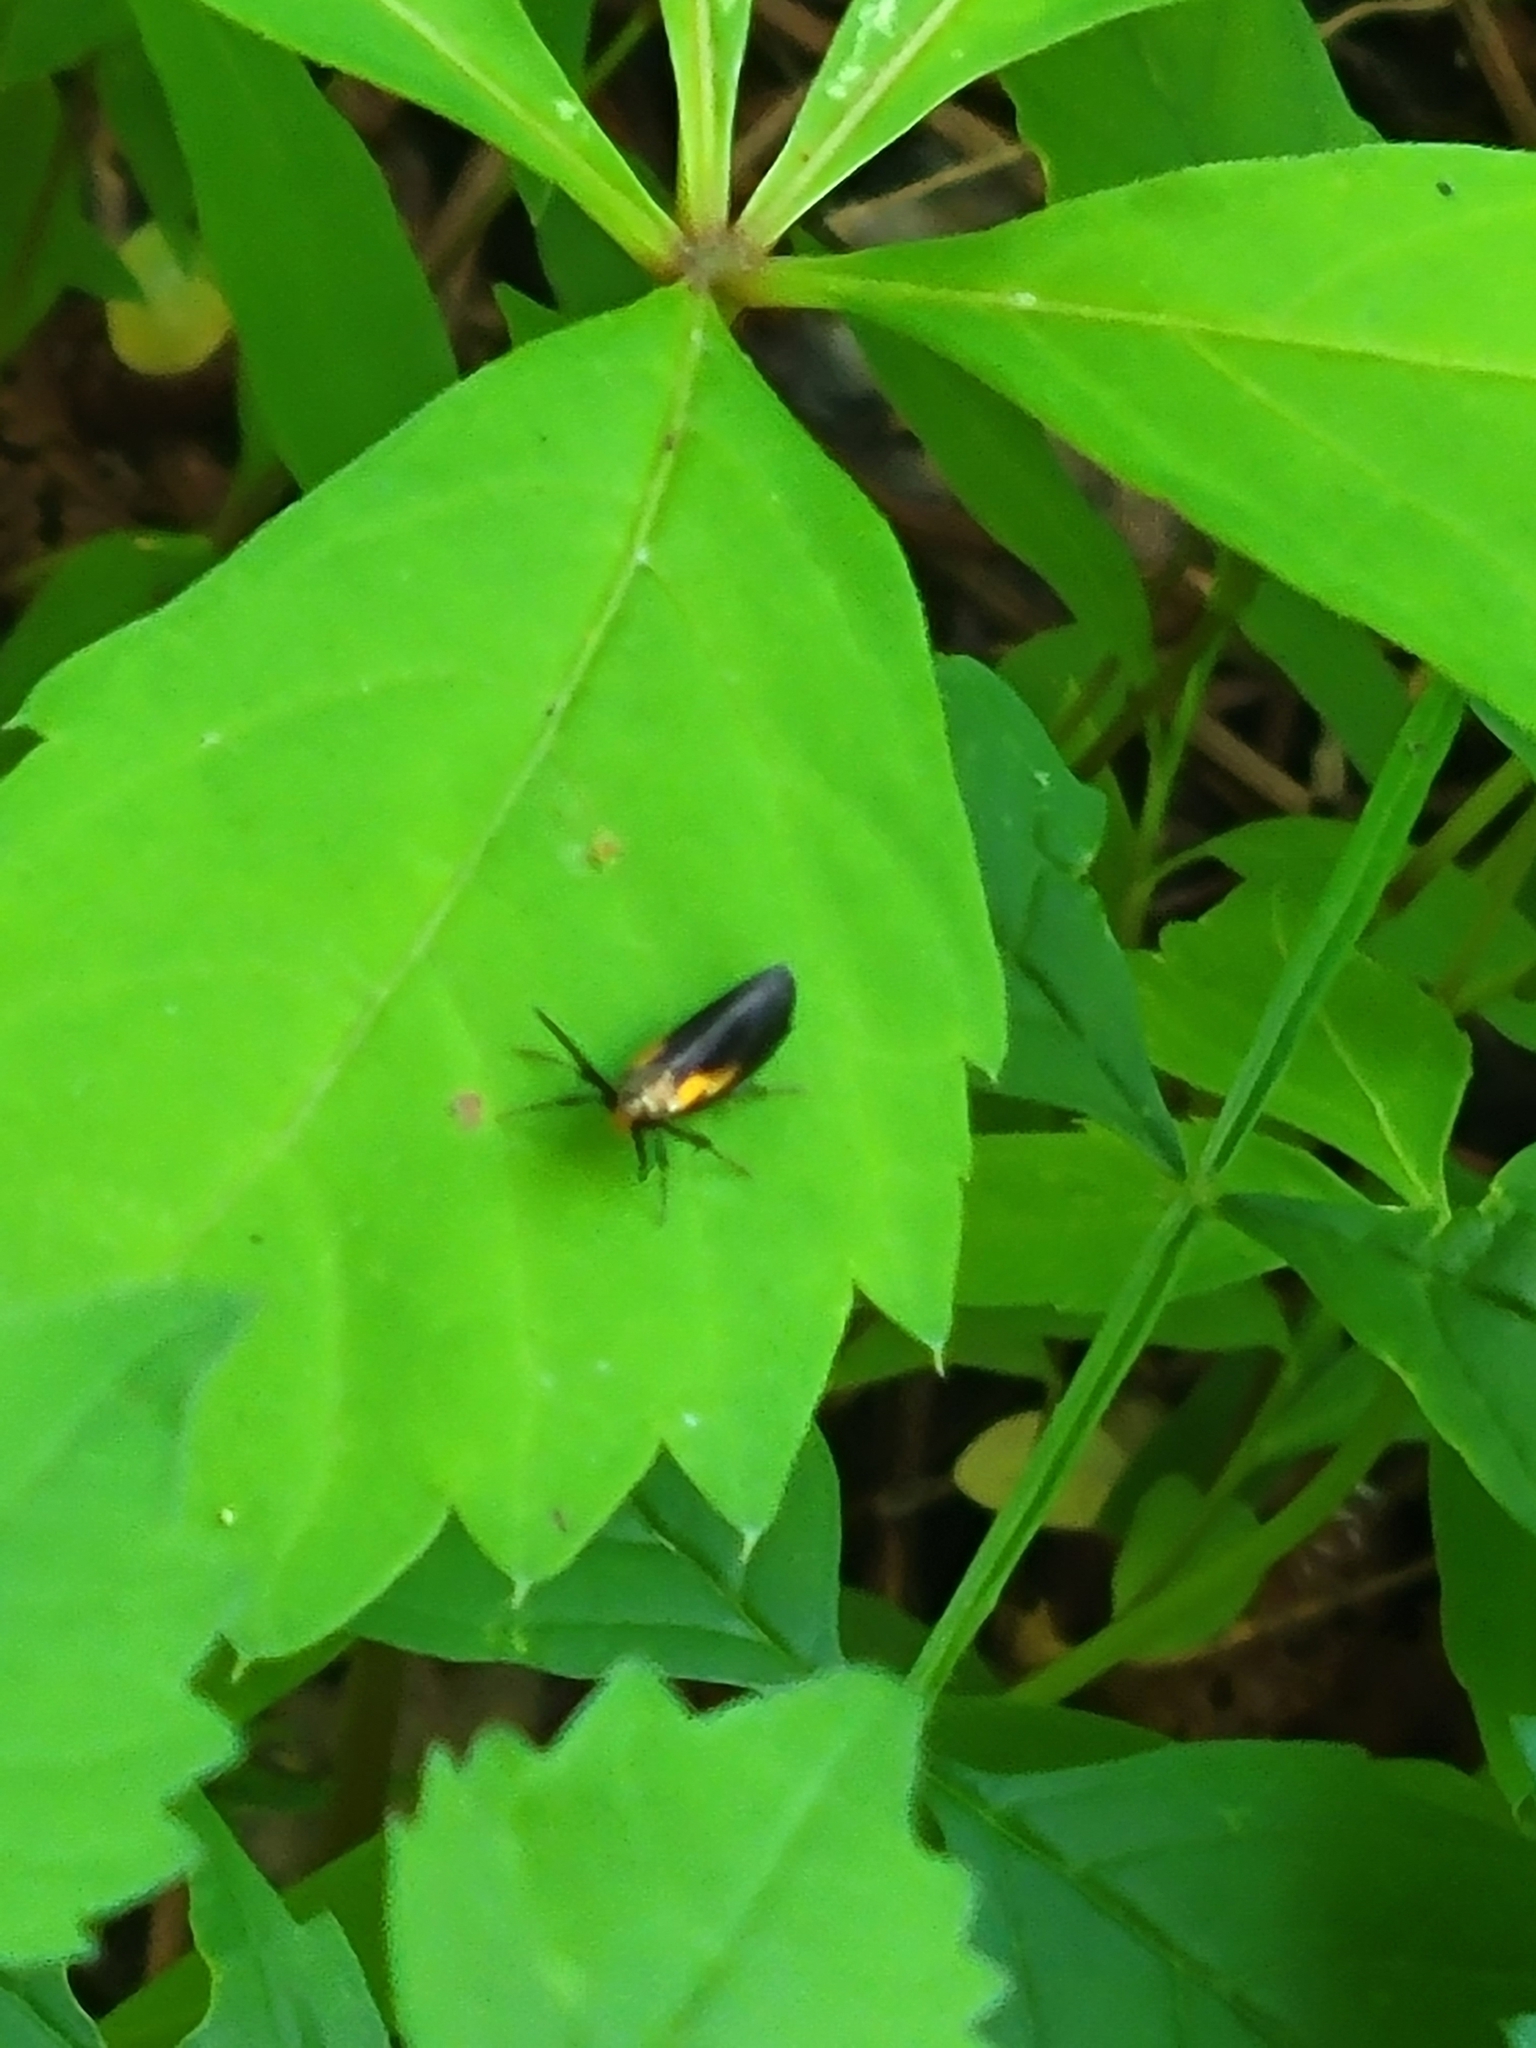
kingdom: Animalia
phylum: Arthropoda
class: Insecta
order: Lepidoptera
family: Oecophoridae
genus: Mathildana
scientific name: Mathildana newmanella
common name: Newman's mathildana moth
